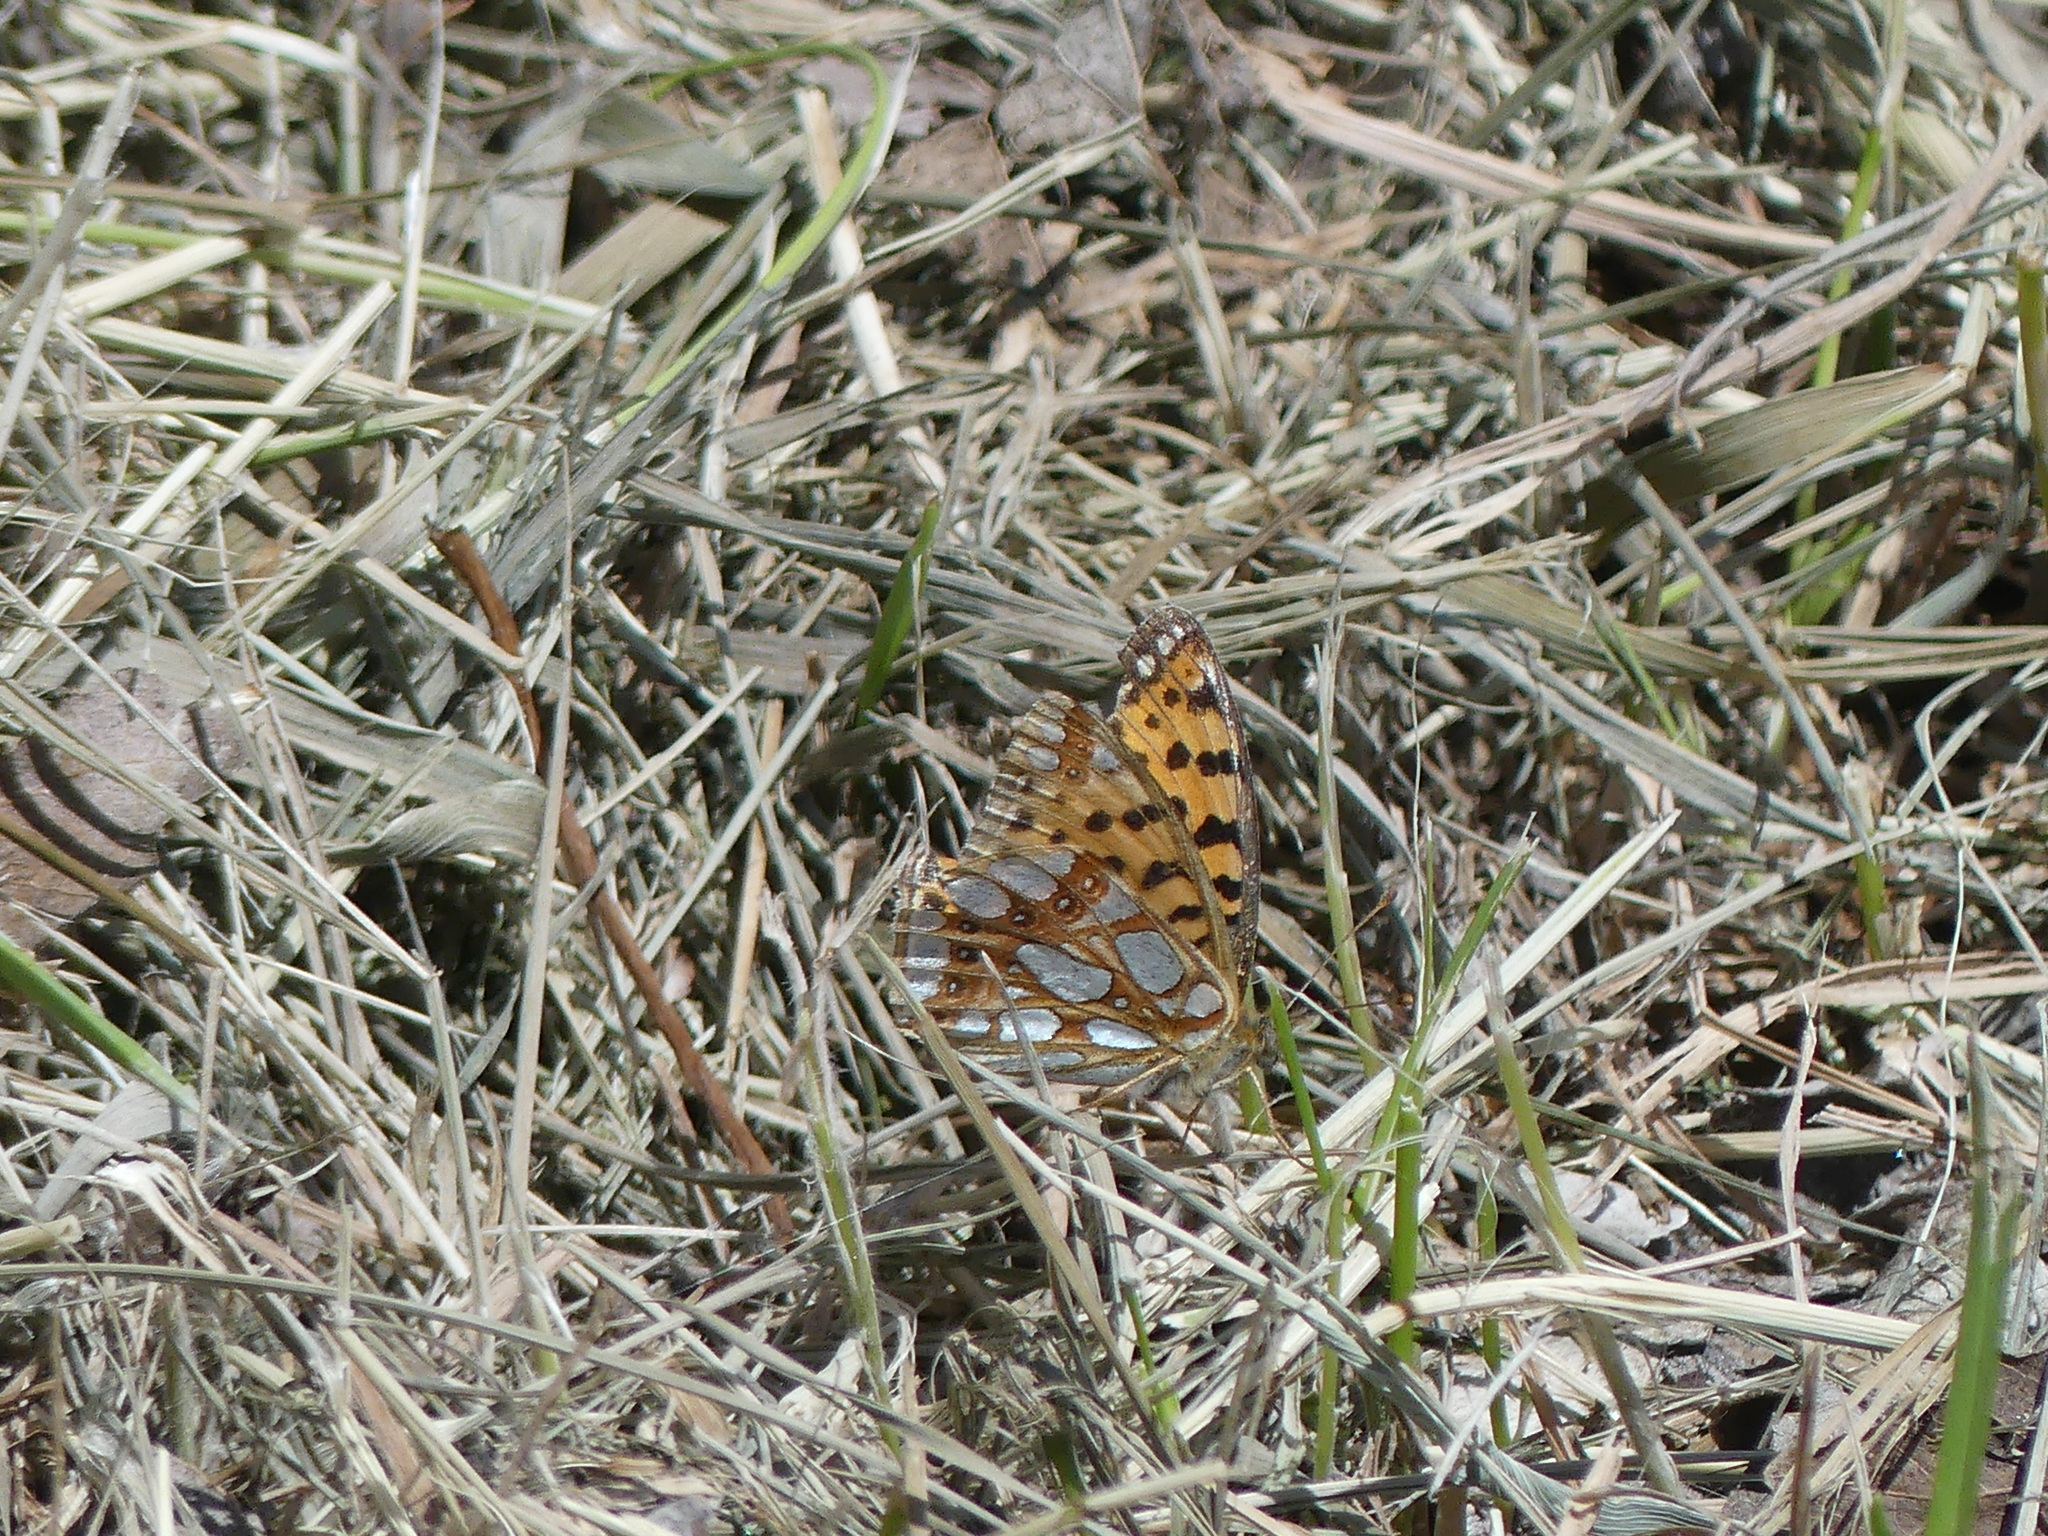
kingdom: Animalia
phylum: Arthropoda
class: Insecta
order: Lepidoptera
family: Nymphalidae
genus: Issoria
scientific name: Issoria lathonia
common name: Queen of spain fritillary
